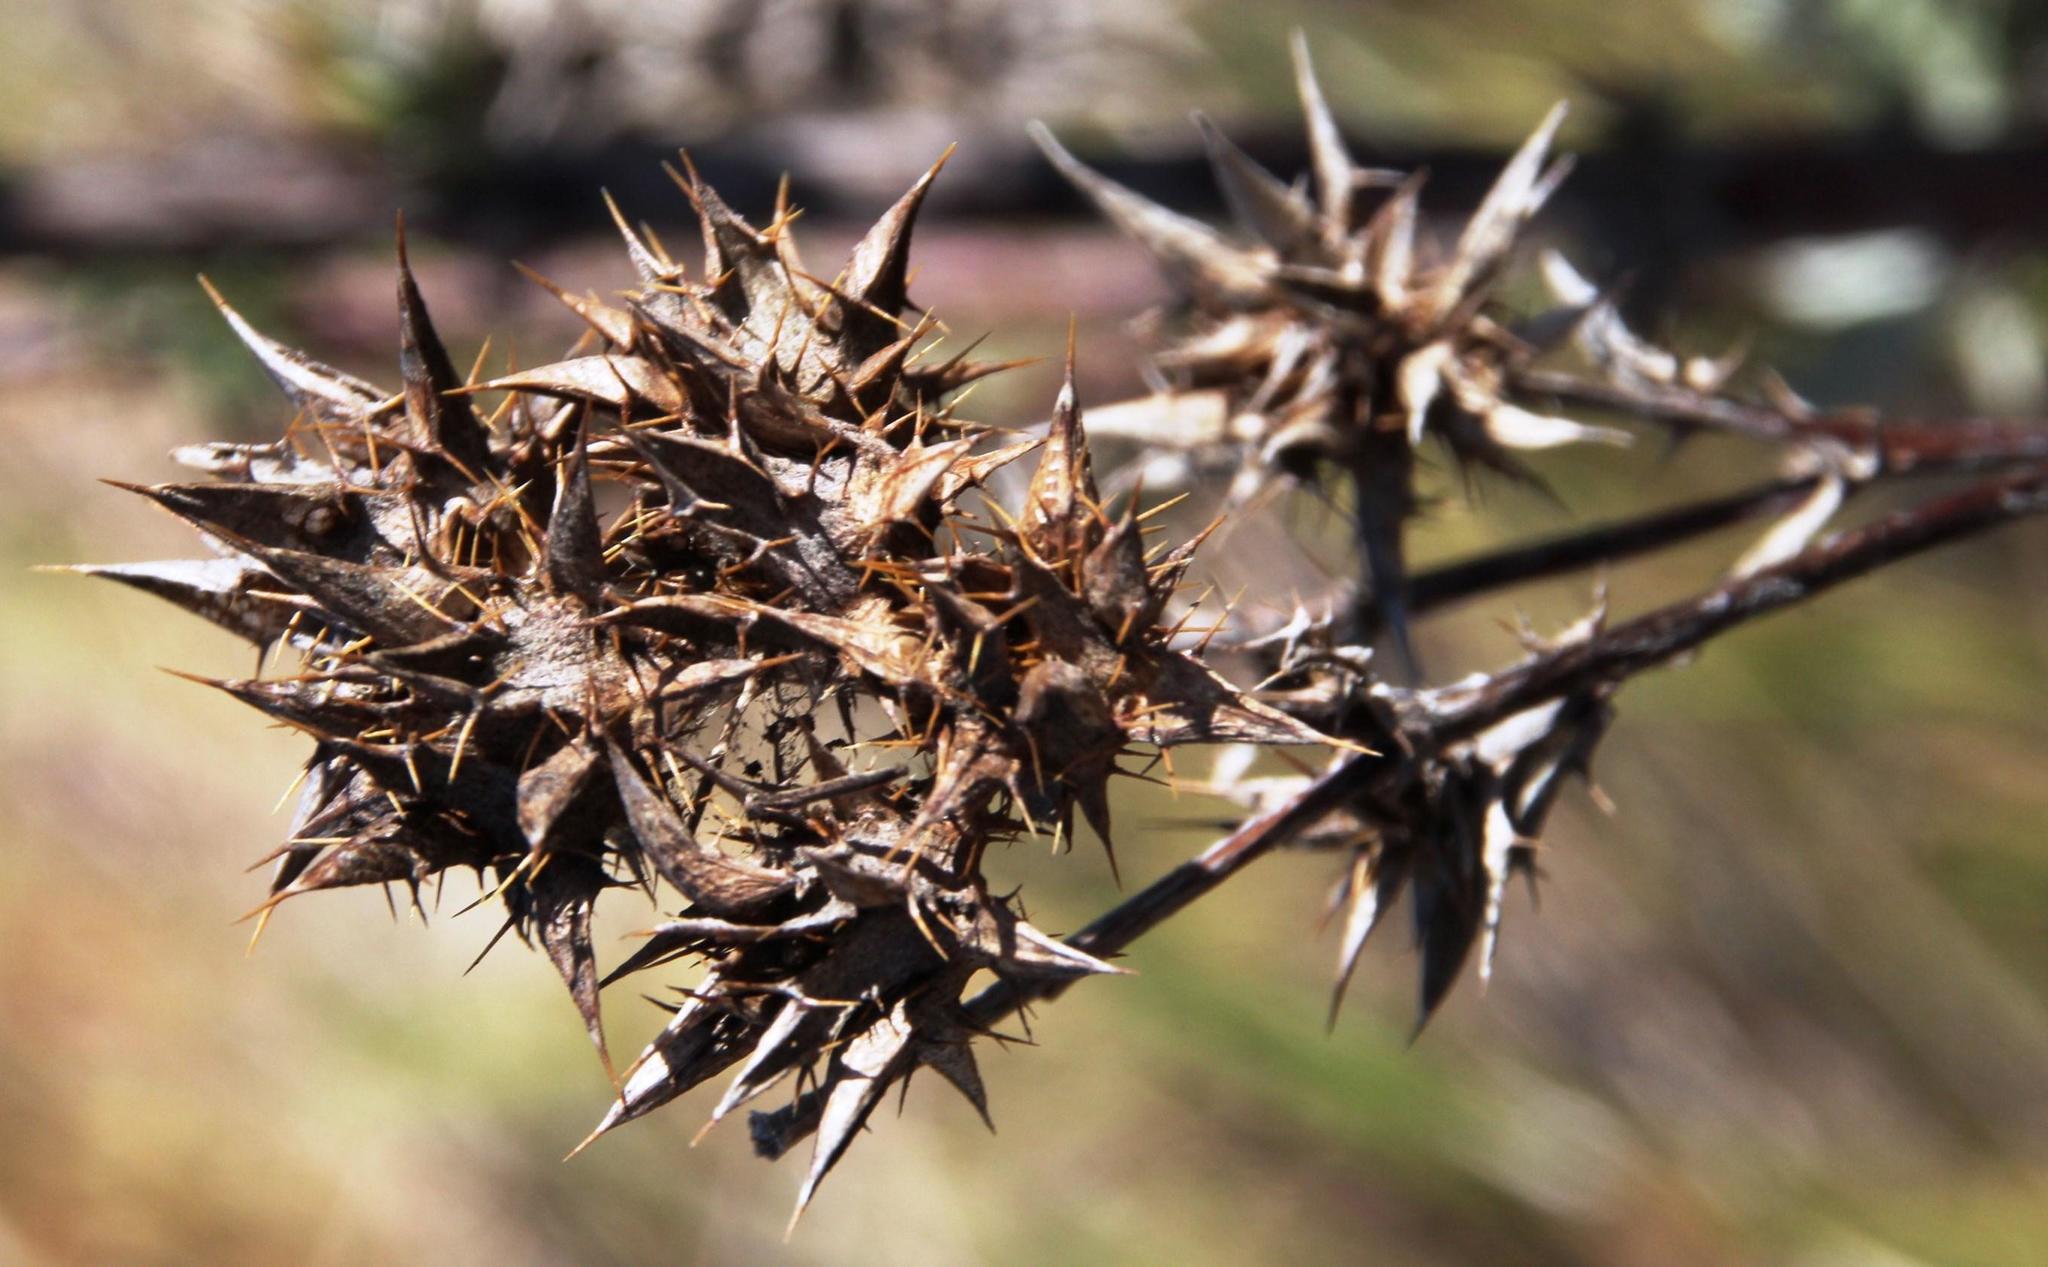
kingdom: Plantae
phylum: Tracheophyta
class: Magnoliopsida
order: Asterales
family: Asteraceae
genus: Berkheya
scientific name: Berkheya rigida
